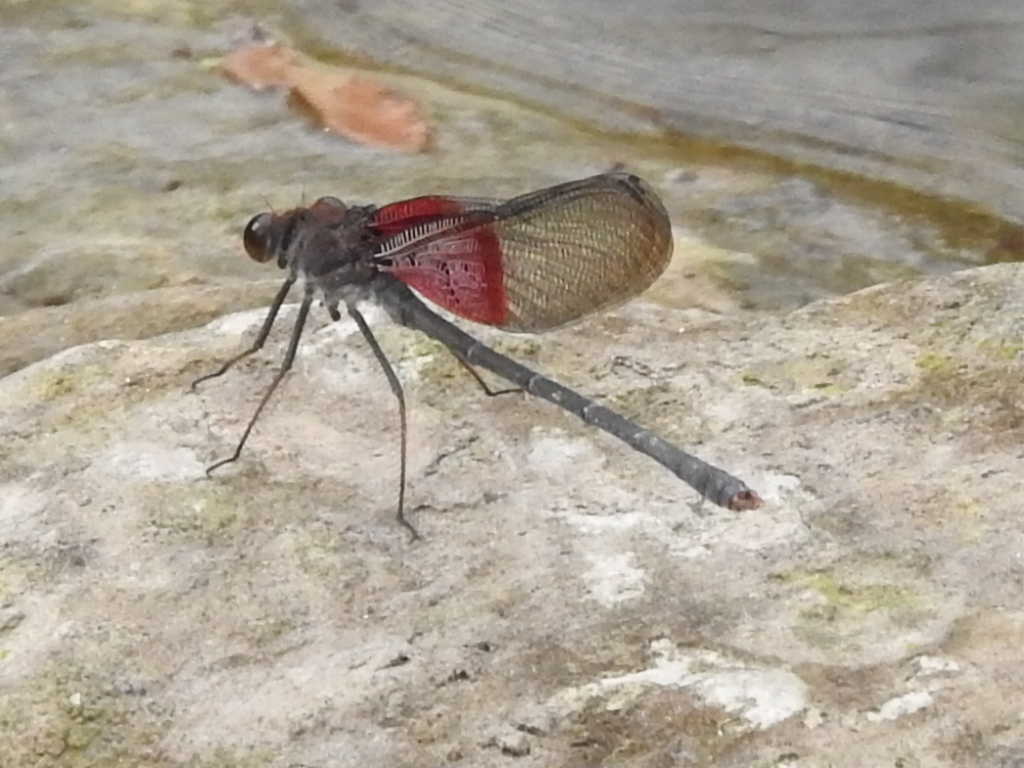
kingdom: Animalia
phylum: Arthropoda
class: Insecta
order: Odonata
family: Calopterygidae
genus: Hetaerina
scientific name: Hetaerina americana
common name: American rubyspot
